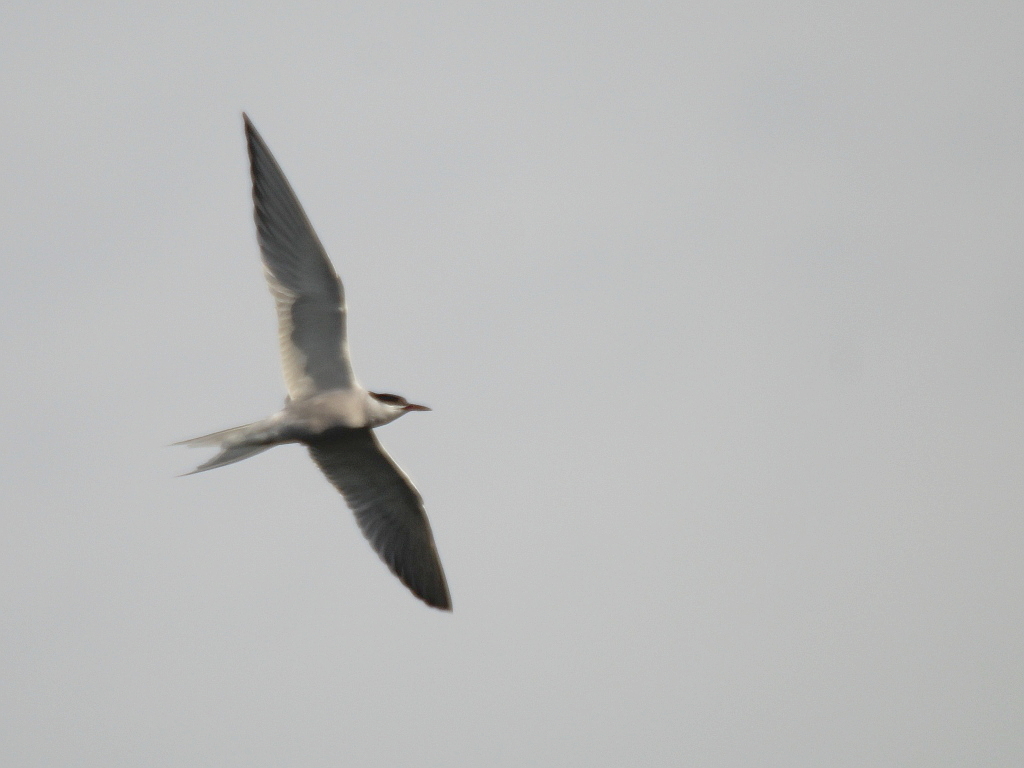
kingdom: Animalia
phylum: Chordata
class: Aves
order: Charadriiformes
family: Laridae
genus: Sterna
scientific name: Sterna hirundo
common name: Common tern
